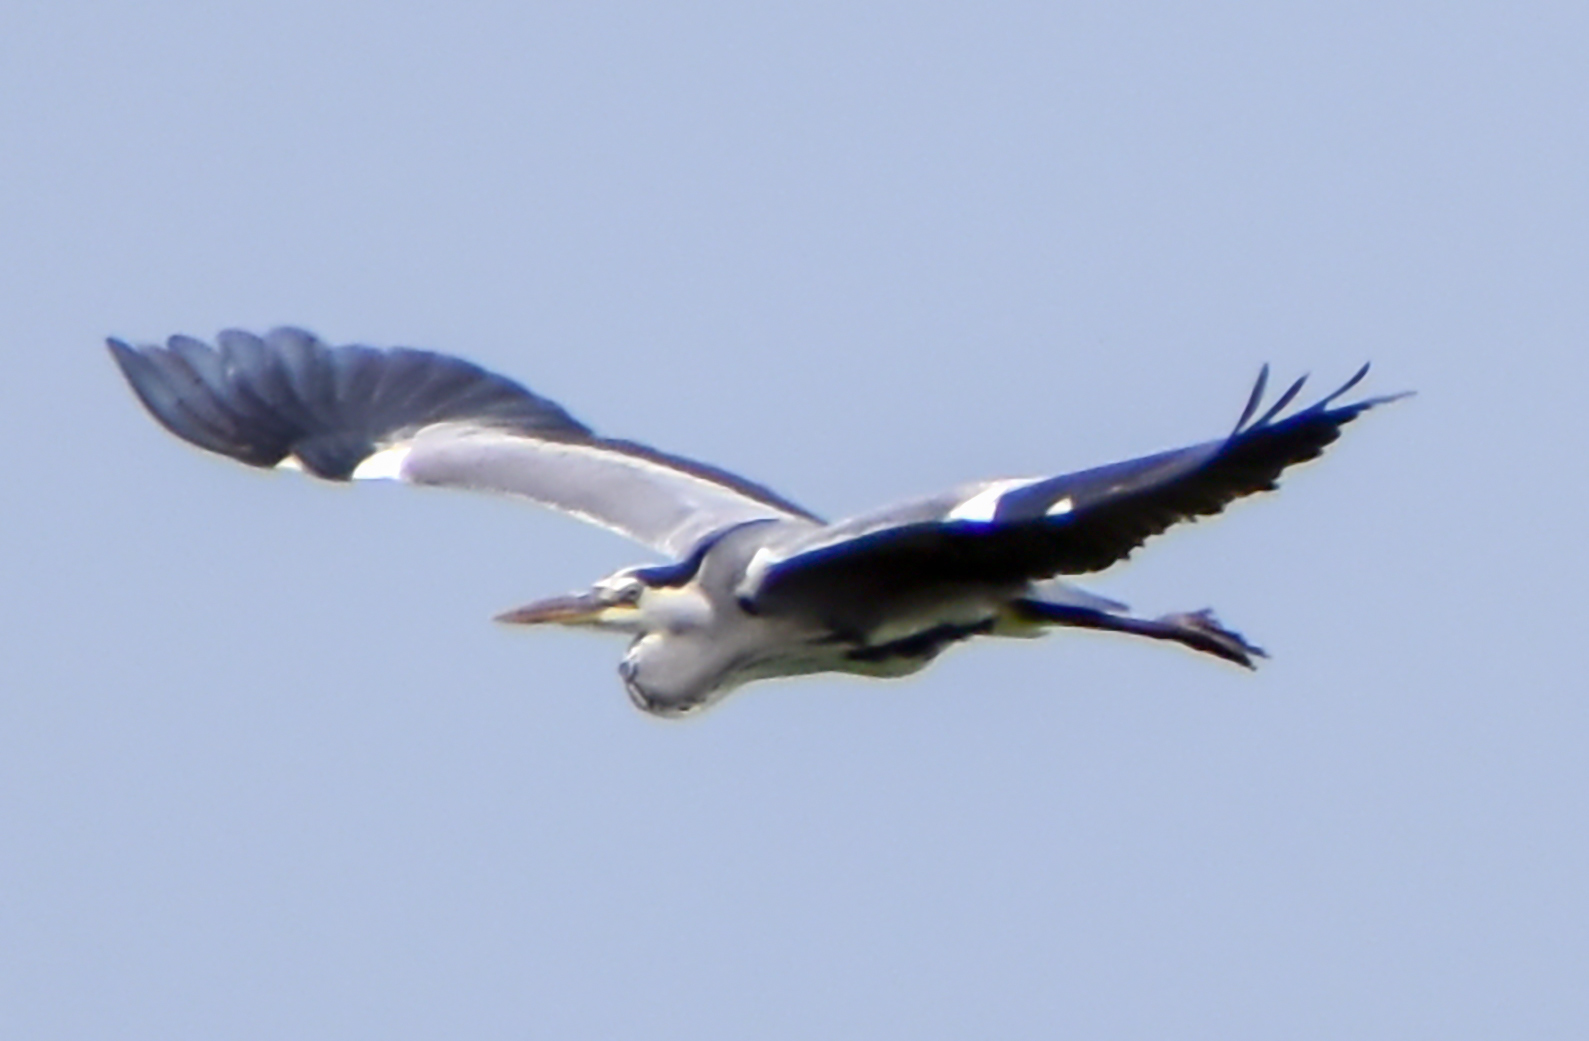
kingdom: Animalia
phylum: Chordata
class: Aves
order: Pelecaniformes
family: Ardeidae
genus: Ardea
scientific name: Ardea cinerea
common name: Grey heron
